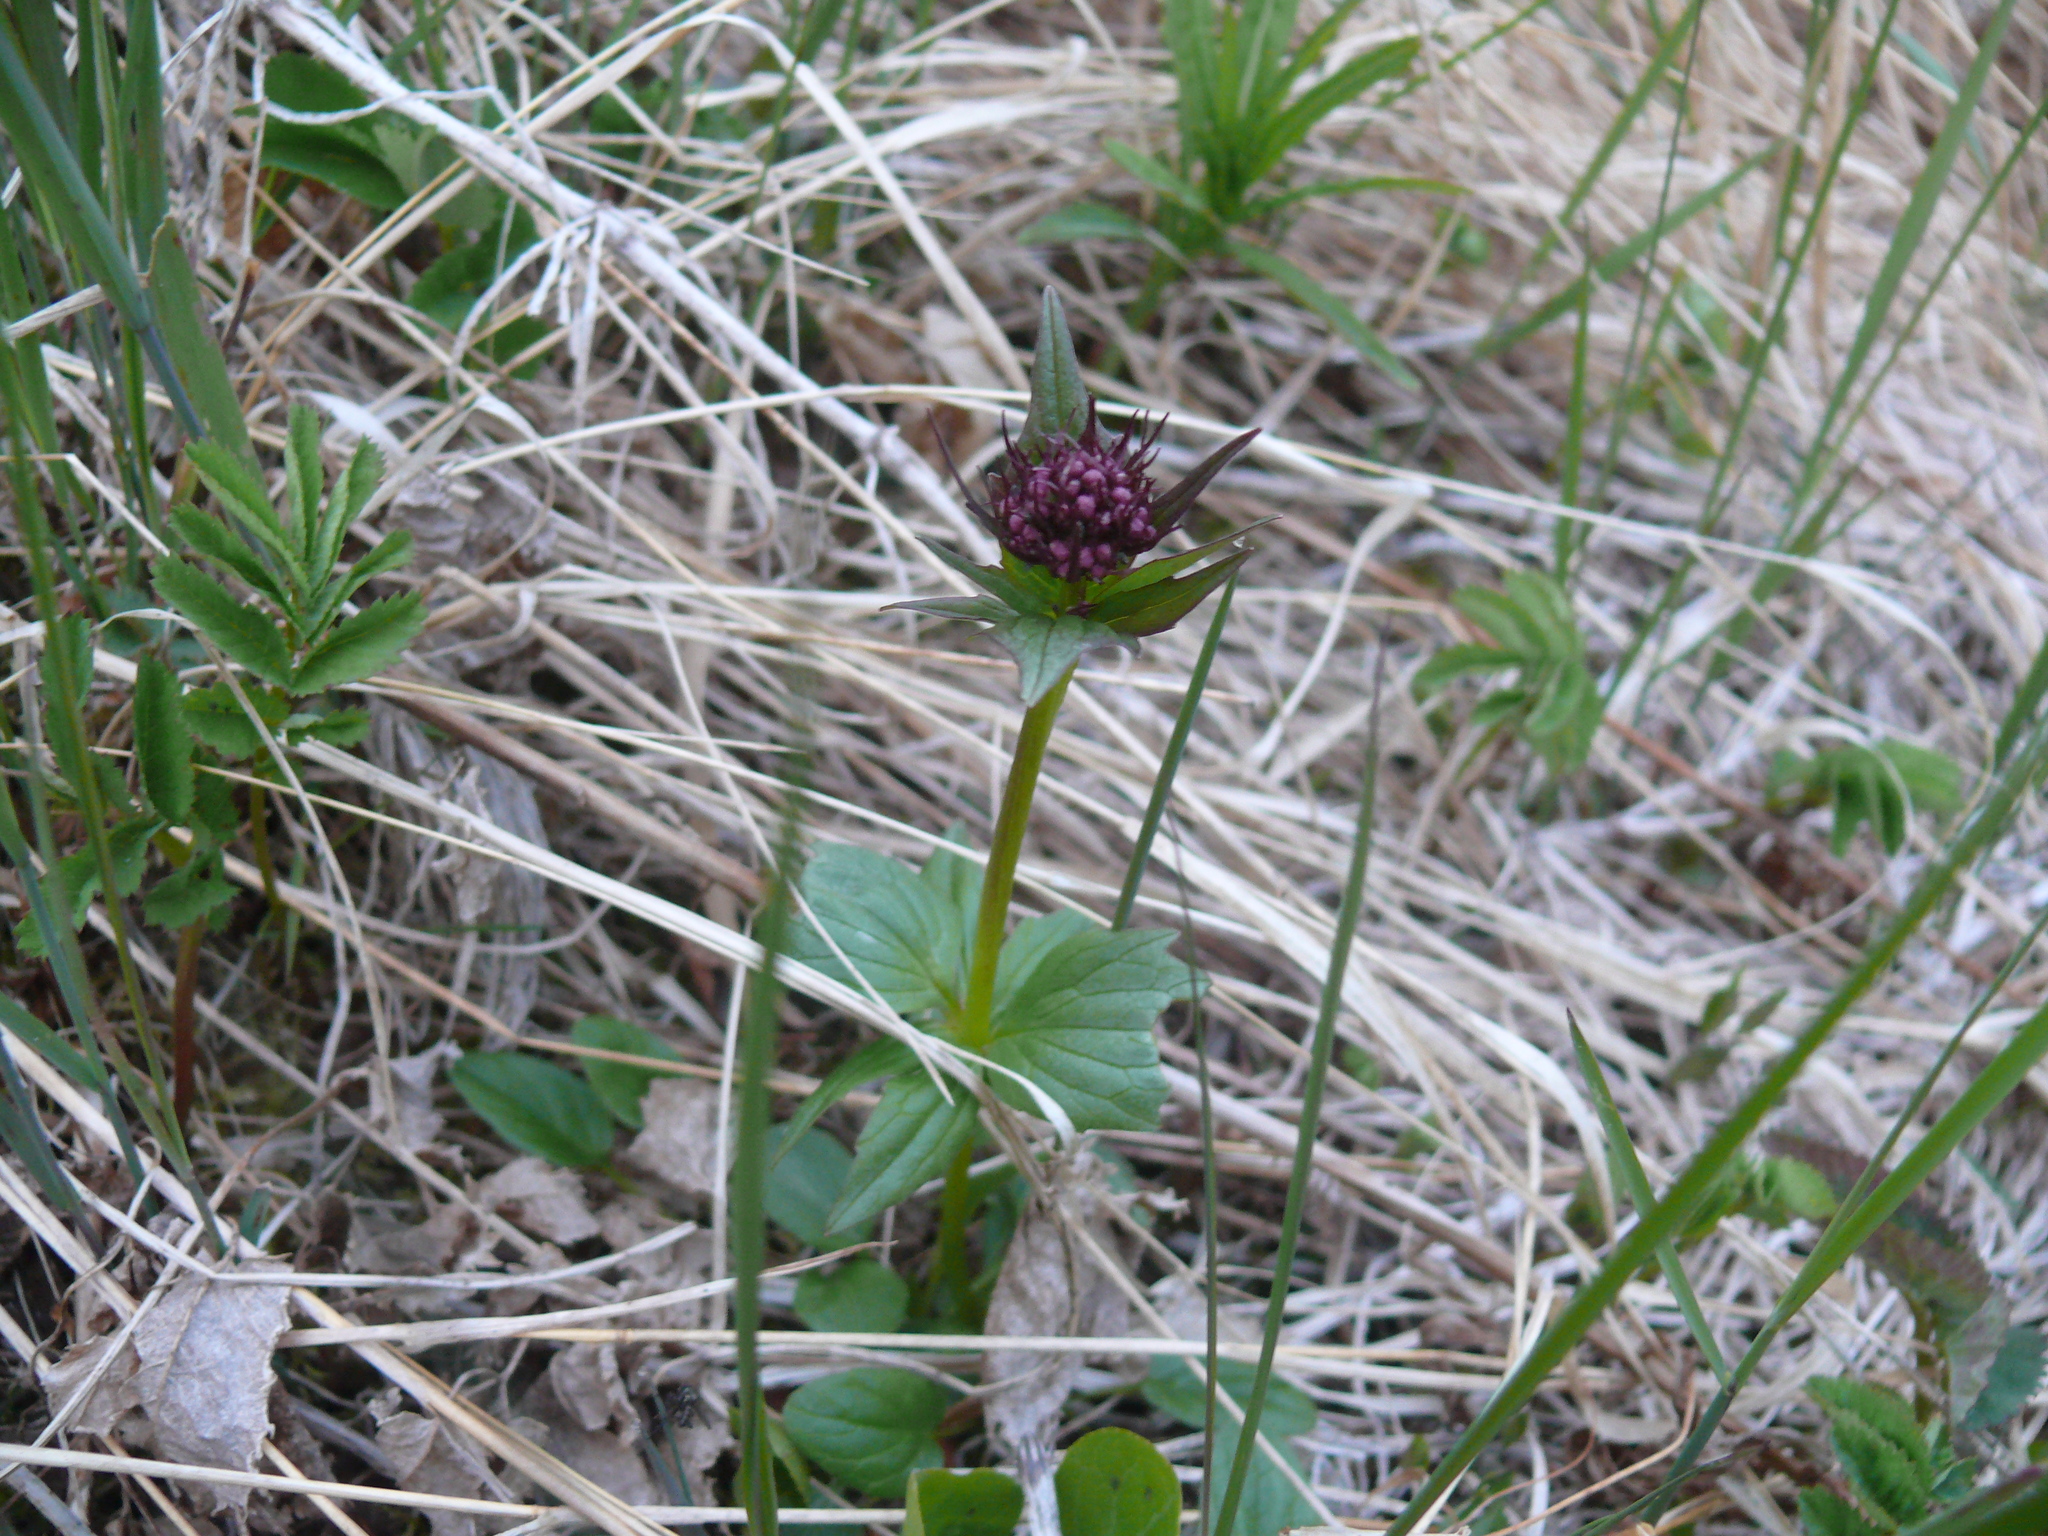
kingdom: Plantae
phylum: Tracheophyta
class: Magnoliopsida
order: Dipsacales
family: Caprifoliaceae
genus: Valeriana
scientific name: Valeriana capitata
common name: Capitate valerian
